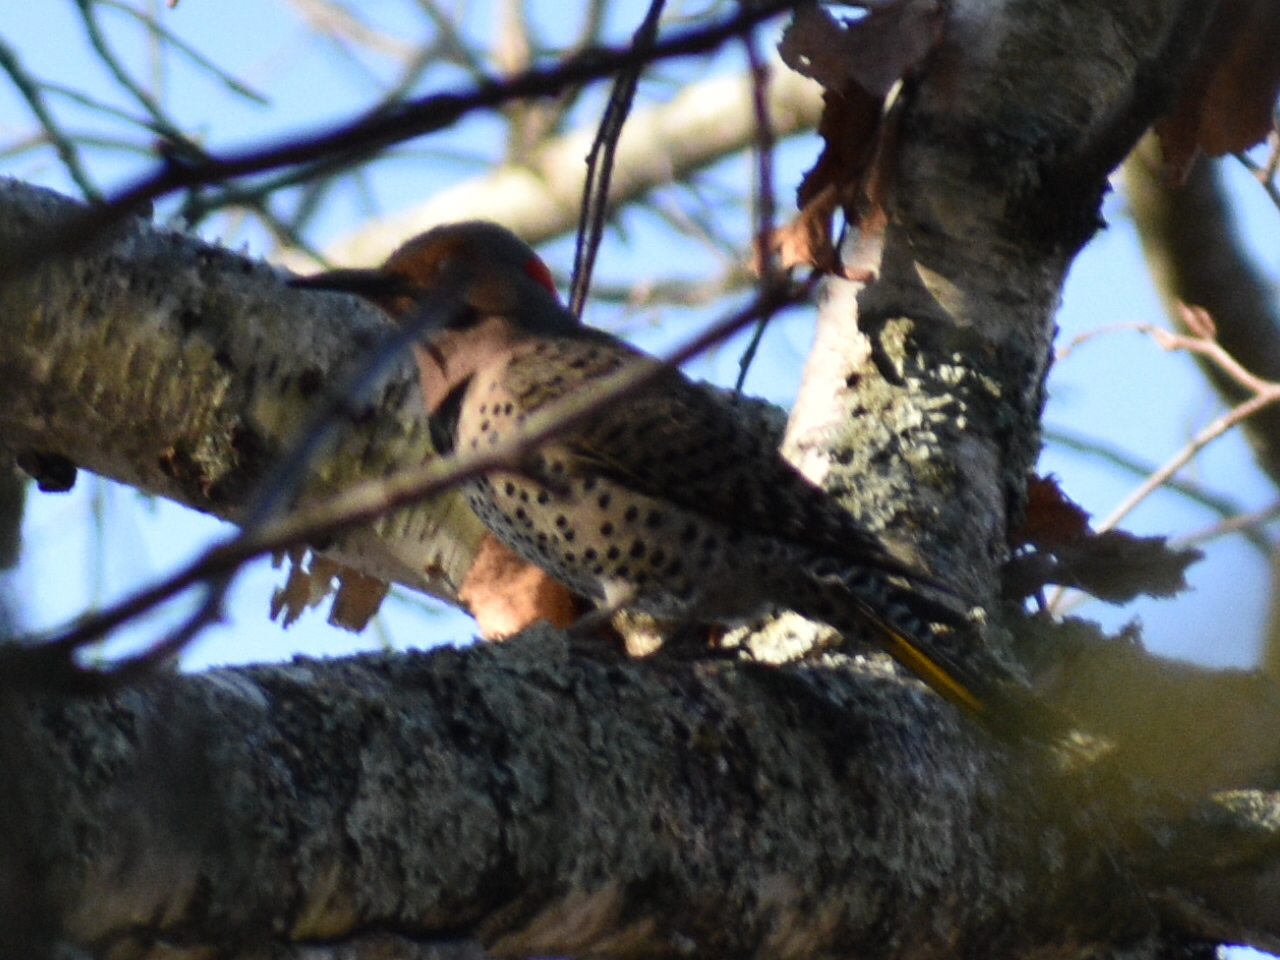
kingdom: Animalia
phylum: Chordata
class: Aves
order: Piciformes
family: Picidae
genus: Colaptes
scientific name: Colaptes auratus
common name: Northern flicker
